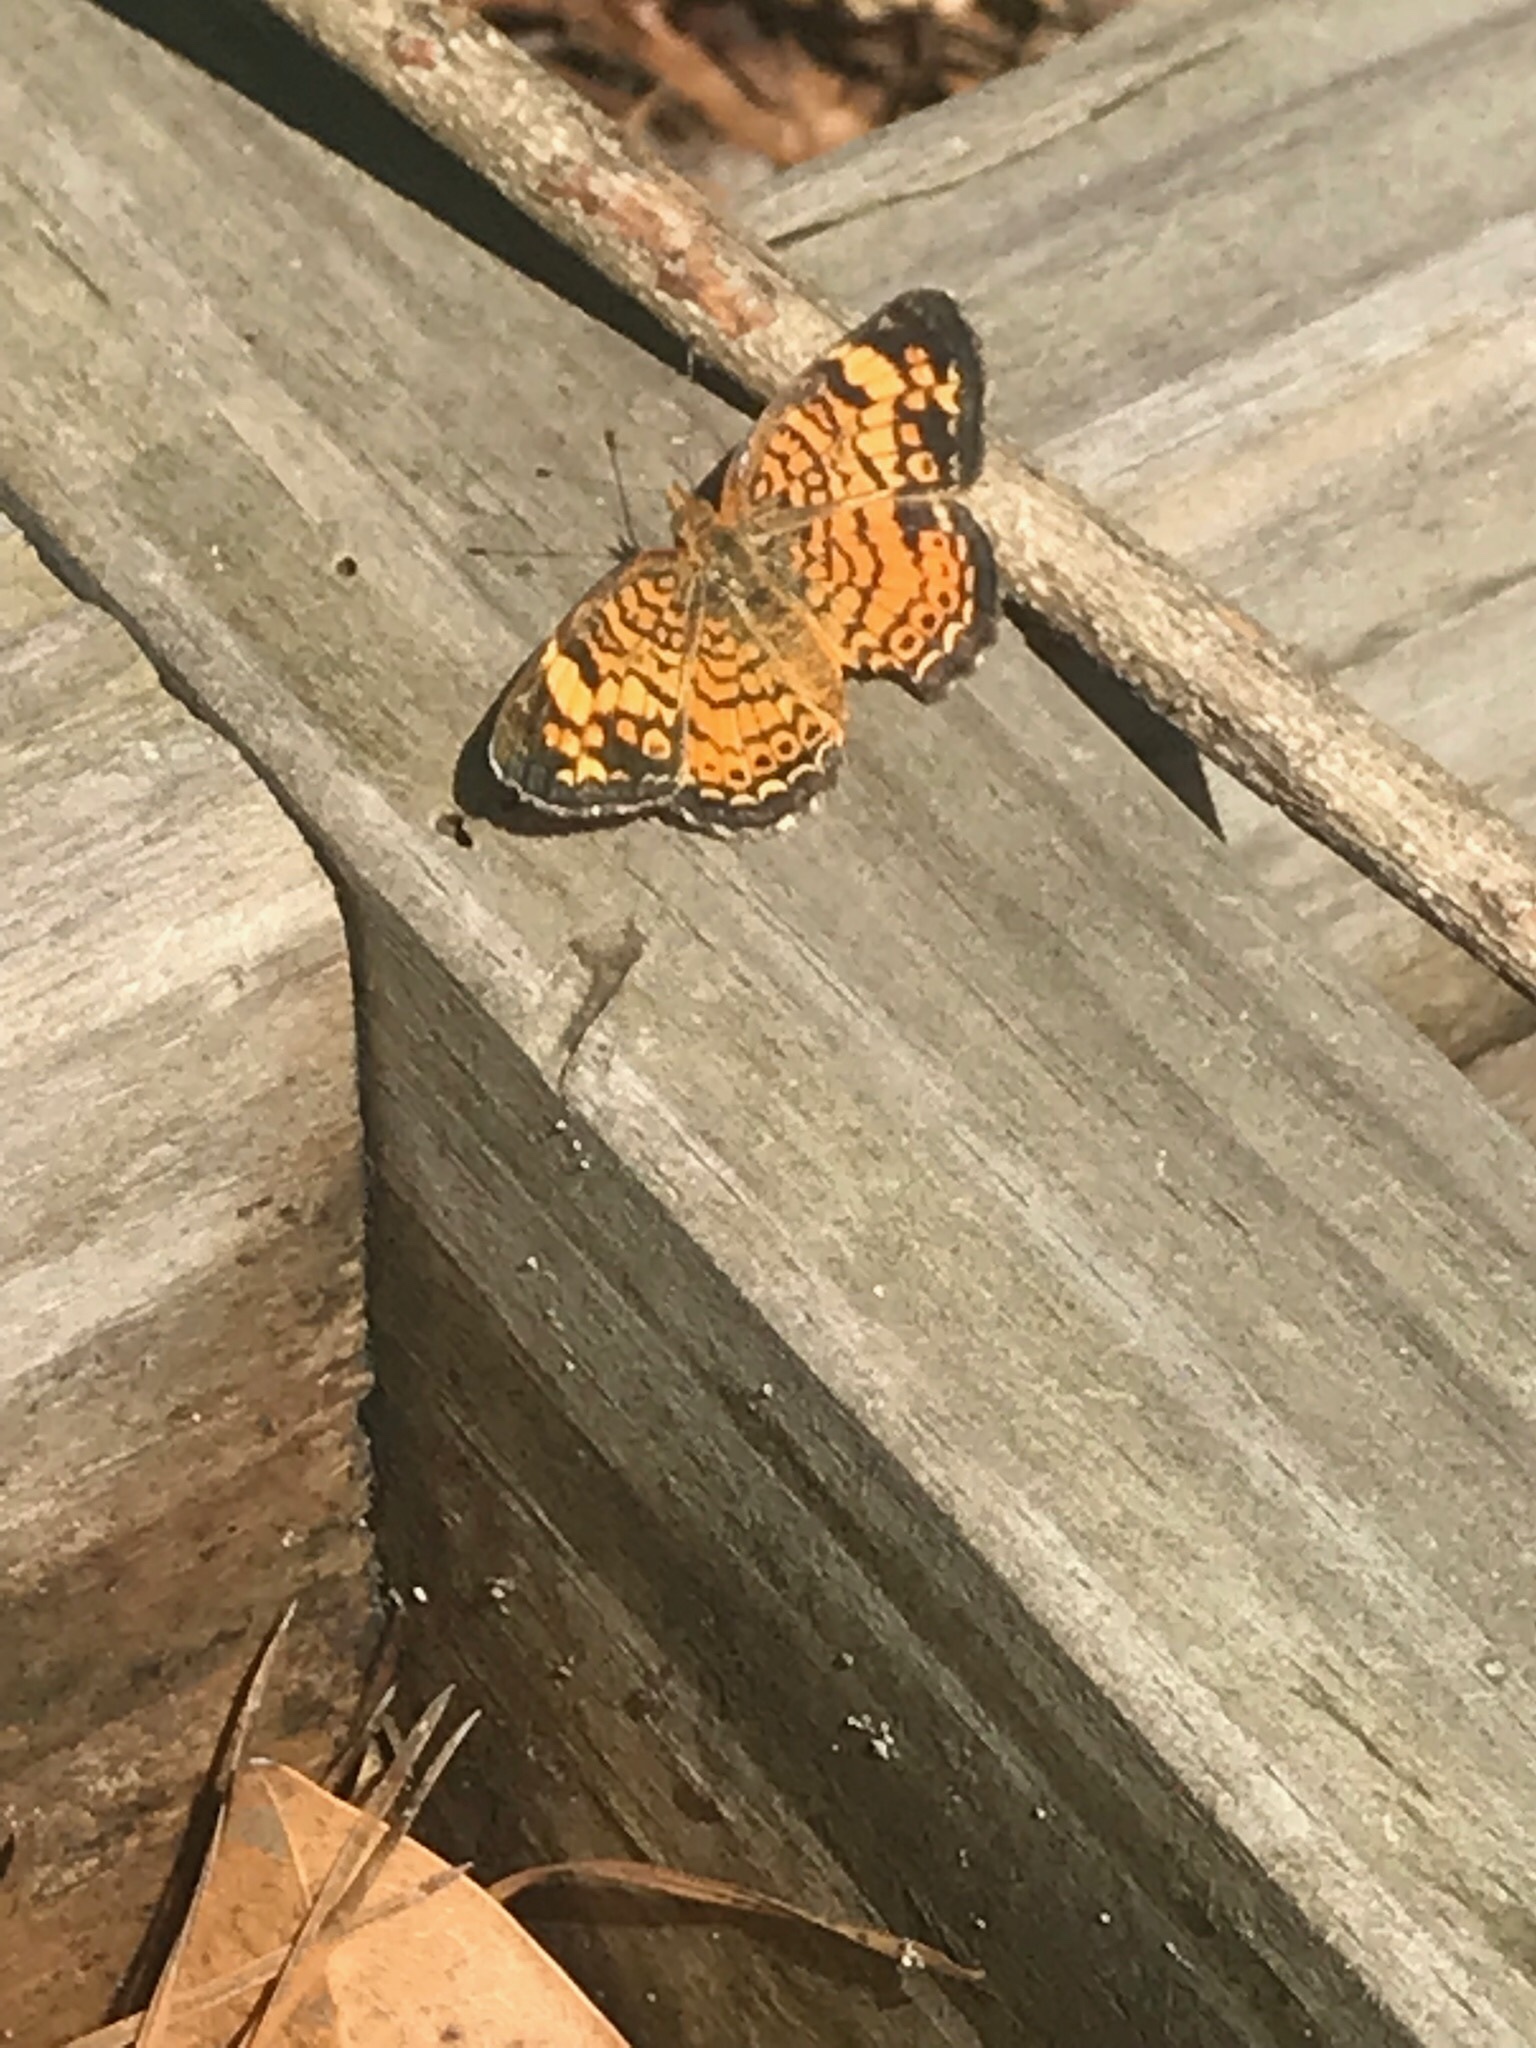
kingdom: Animalia
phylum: Arthropoda
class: Insecta
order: Lepidoptera
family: Nymphalidae
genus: Phyciodes
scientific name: Phyciodes tharos
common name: Pearl crescent
